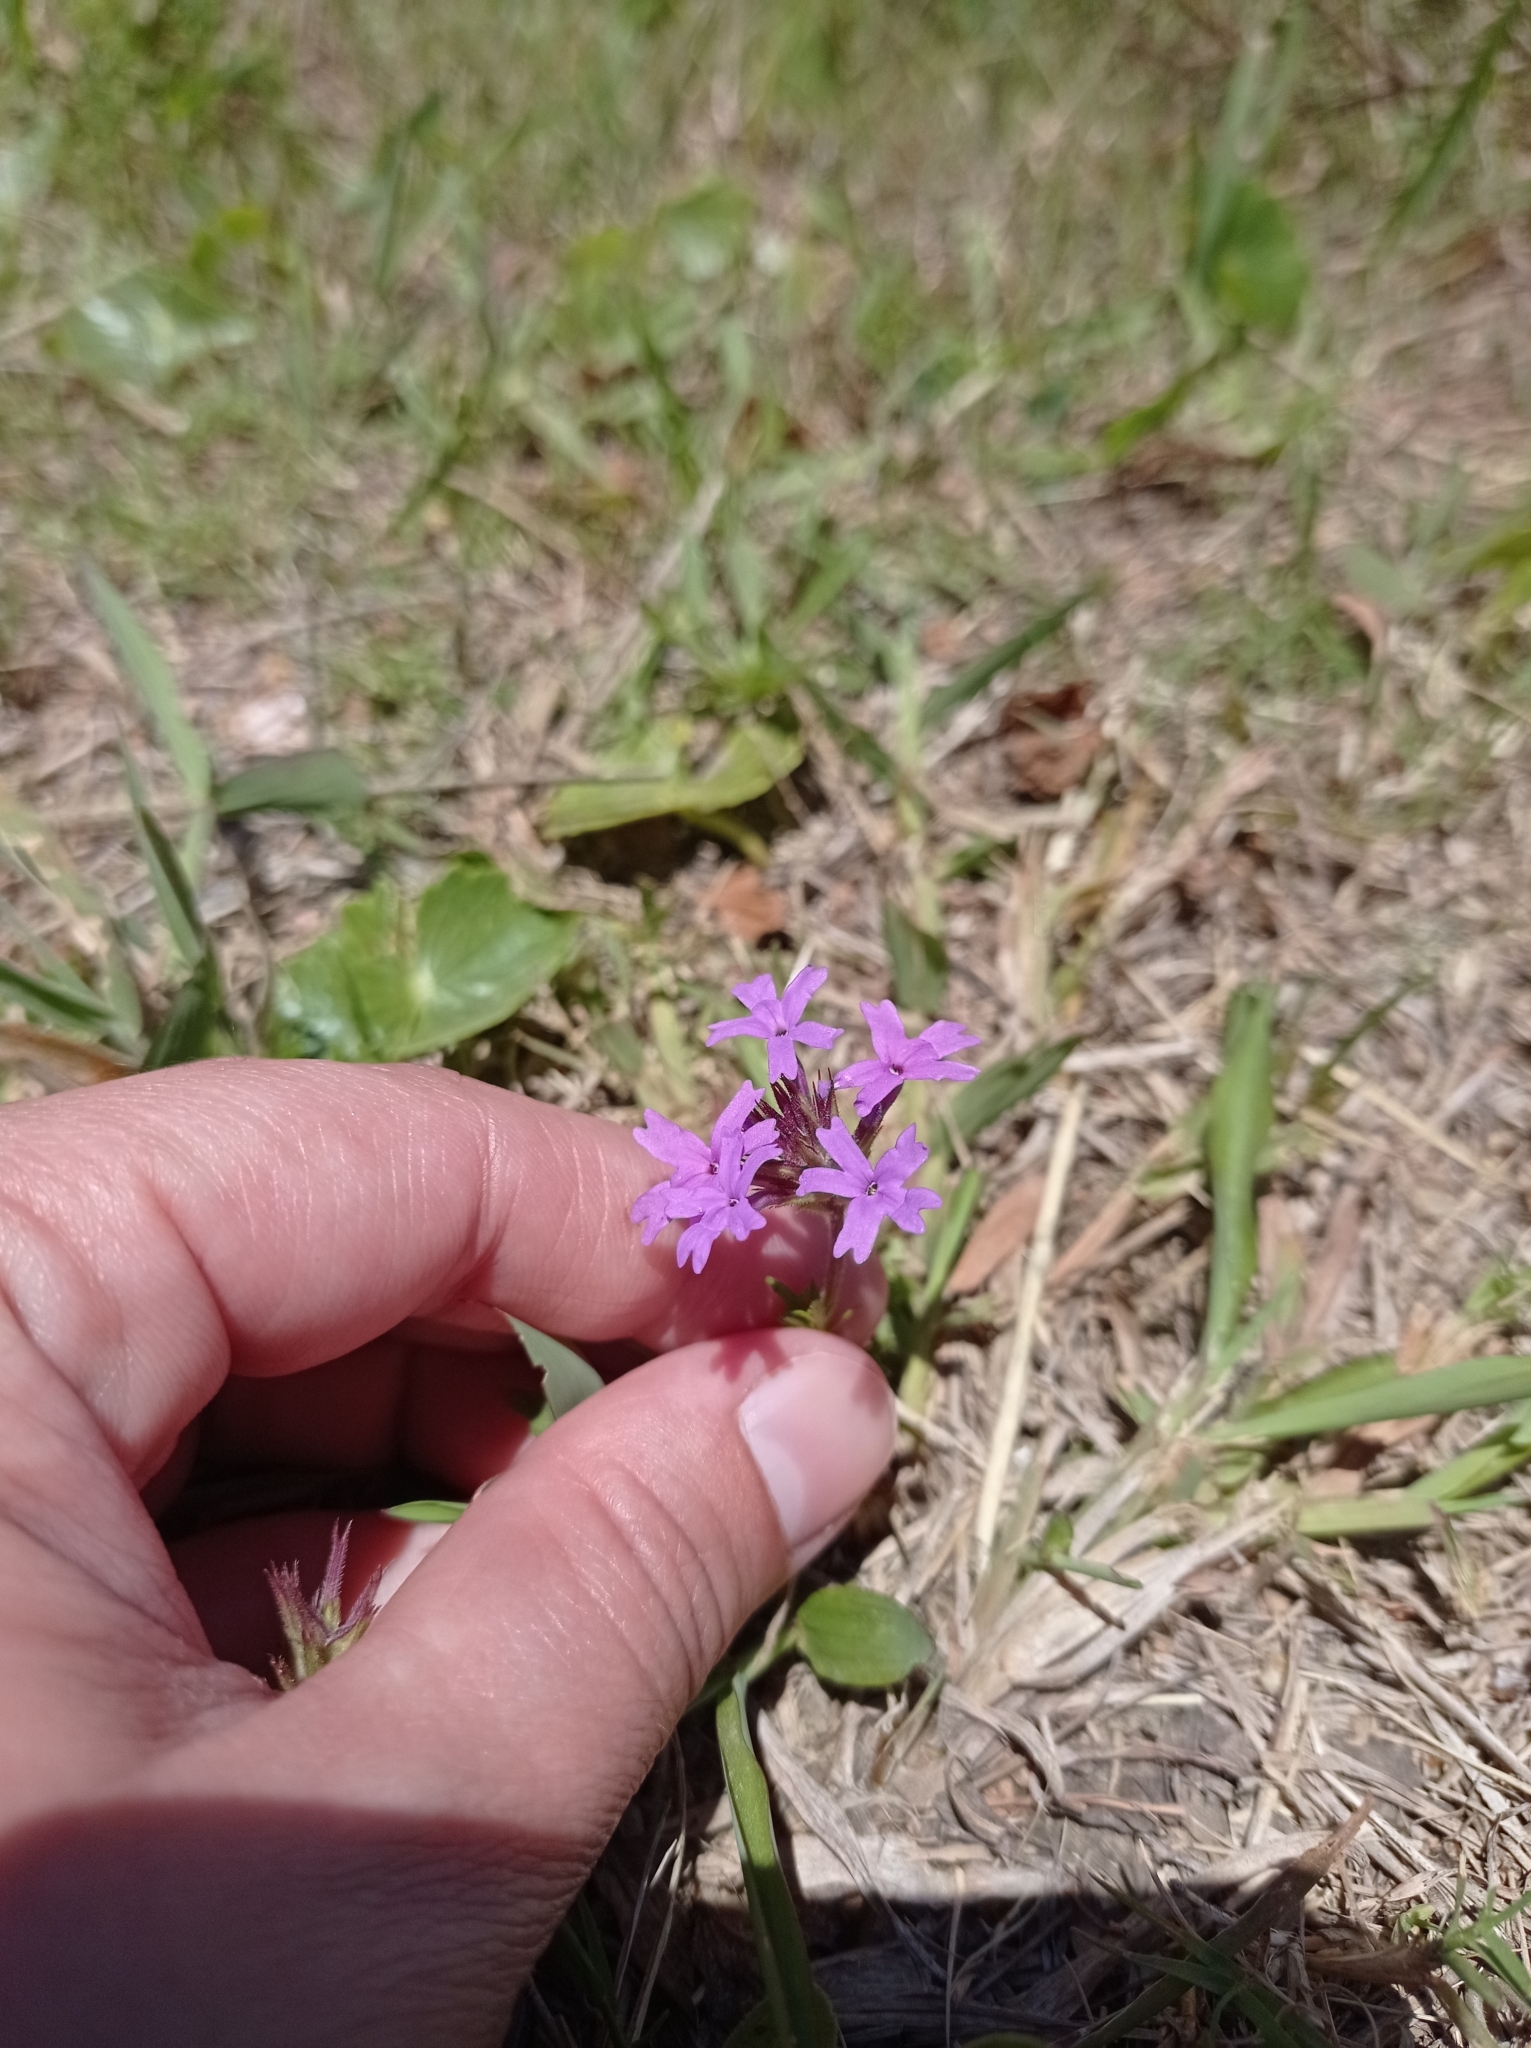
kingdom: Plantae
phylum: Tracheophyta
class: Magnoliopsida
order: Lamiales
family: Verbenaceae
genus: Verbena
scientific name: Verbena selloi
